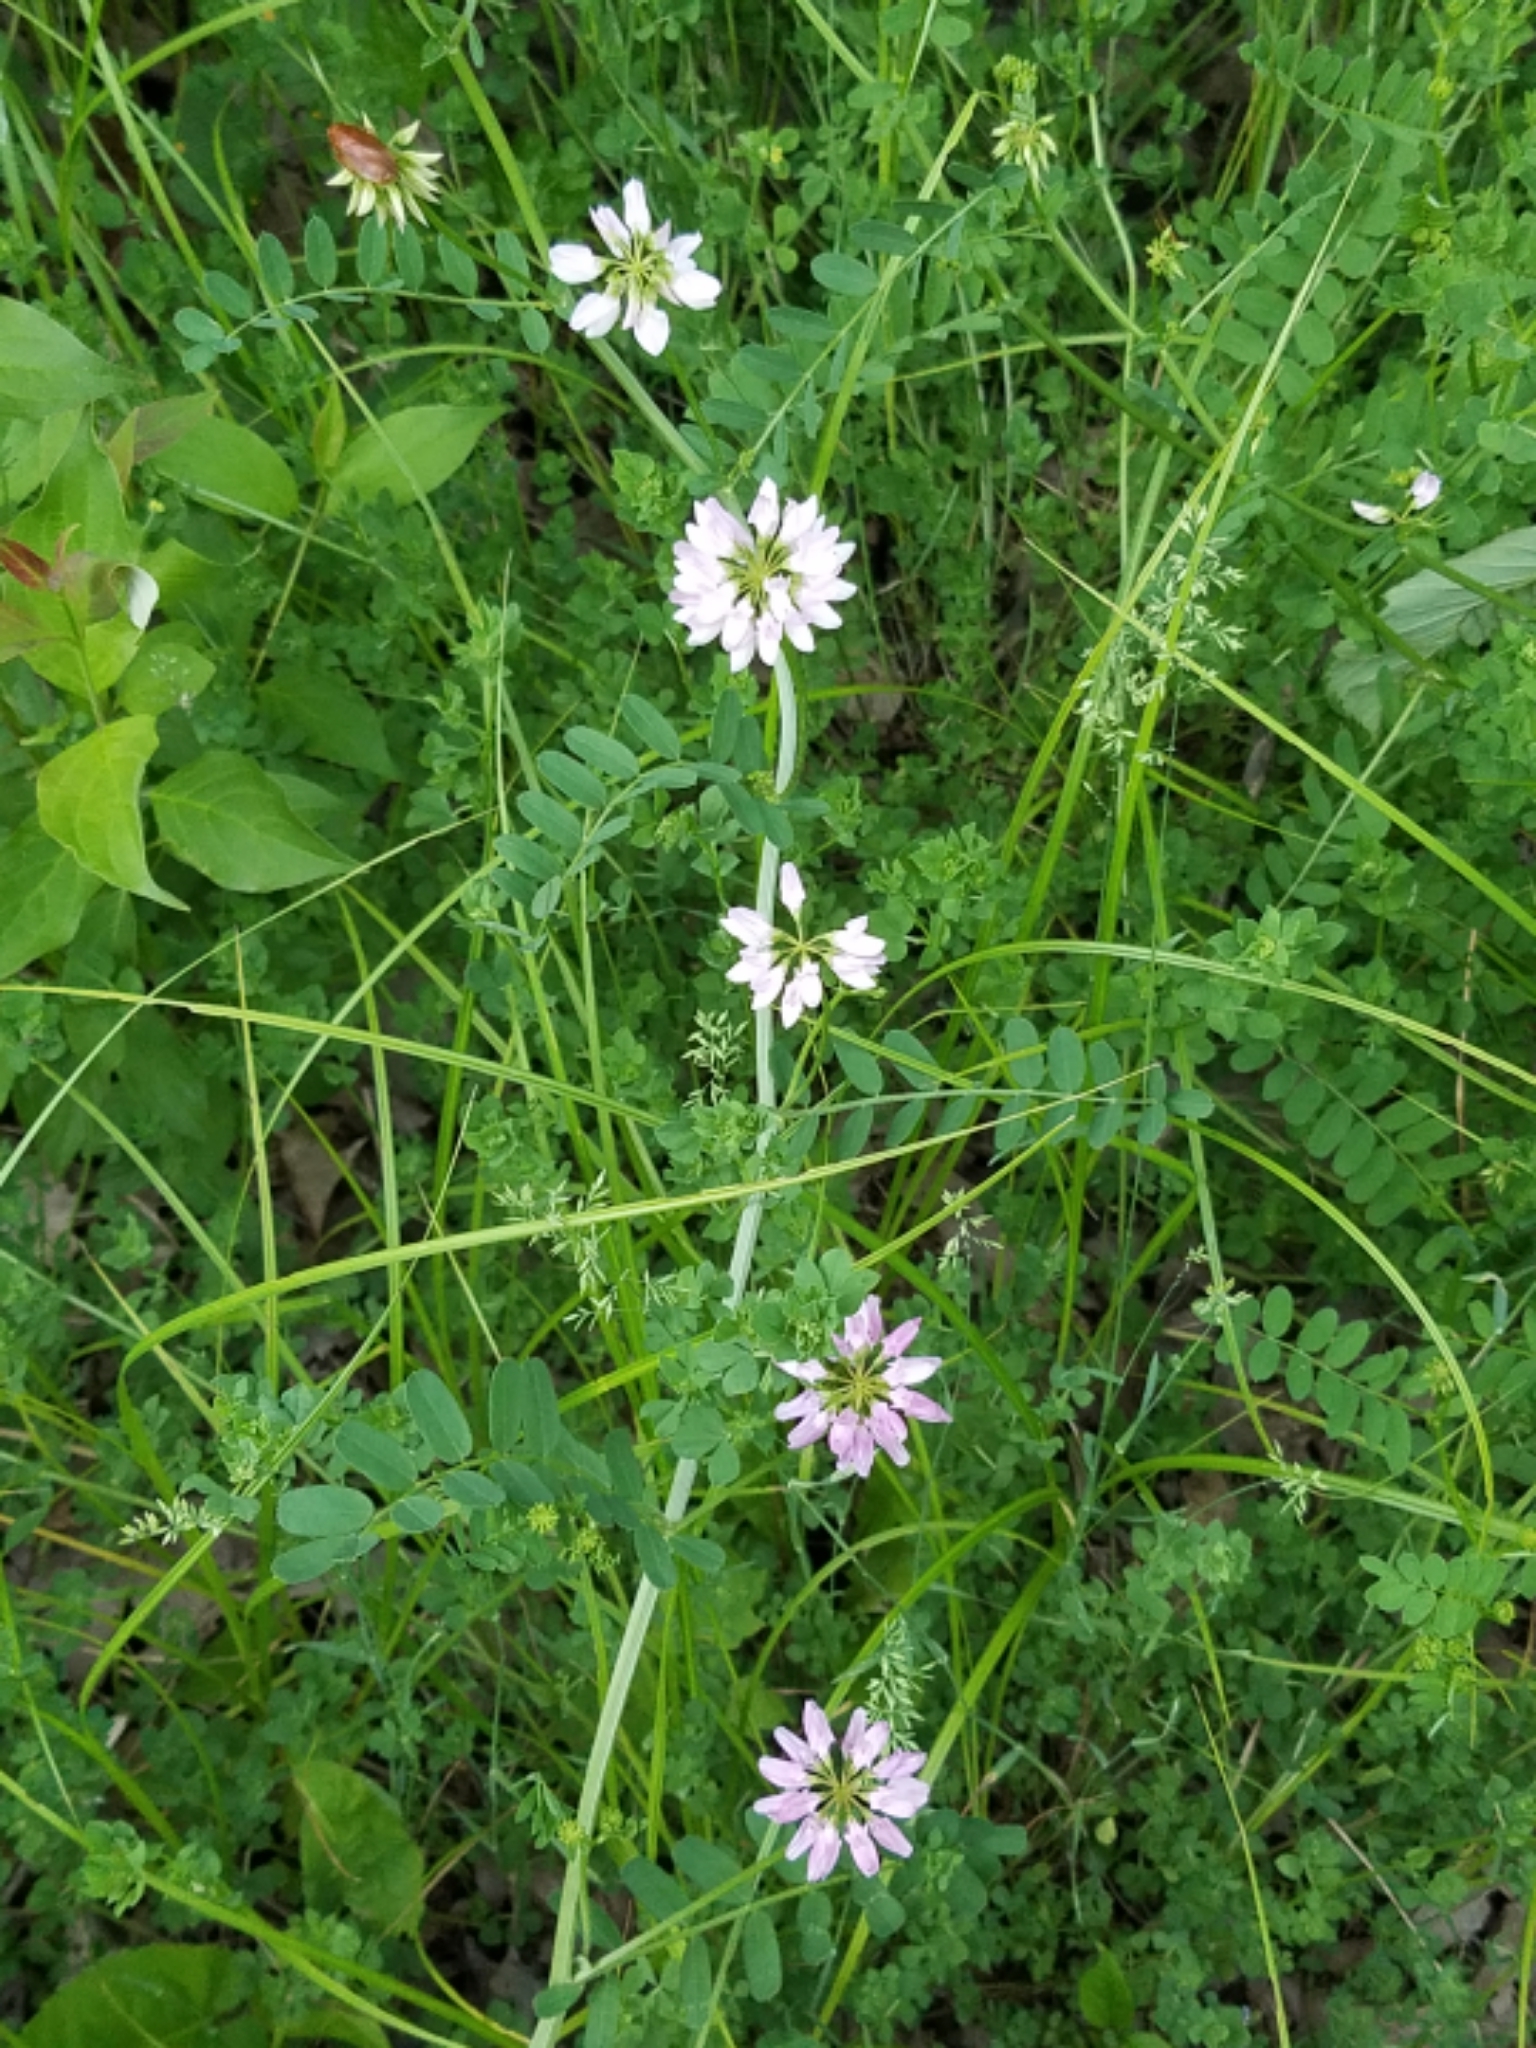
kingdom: Plantae
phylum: Tracheophyta
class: Magnoliopsida
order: Fabales
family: Fabaceae
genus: Coronilla
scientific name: Coronilla varia
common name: Crownvetch
